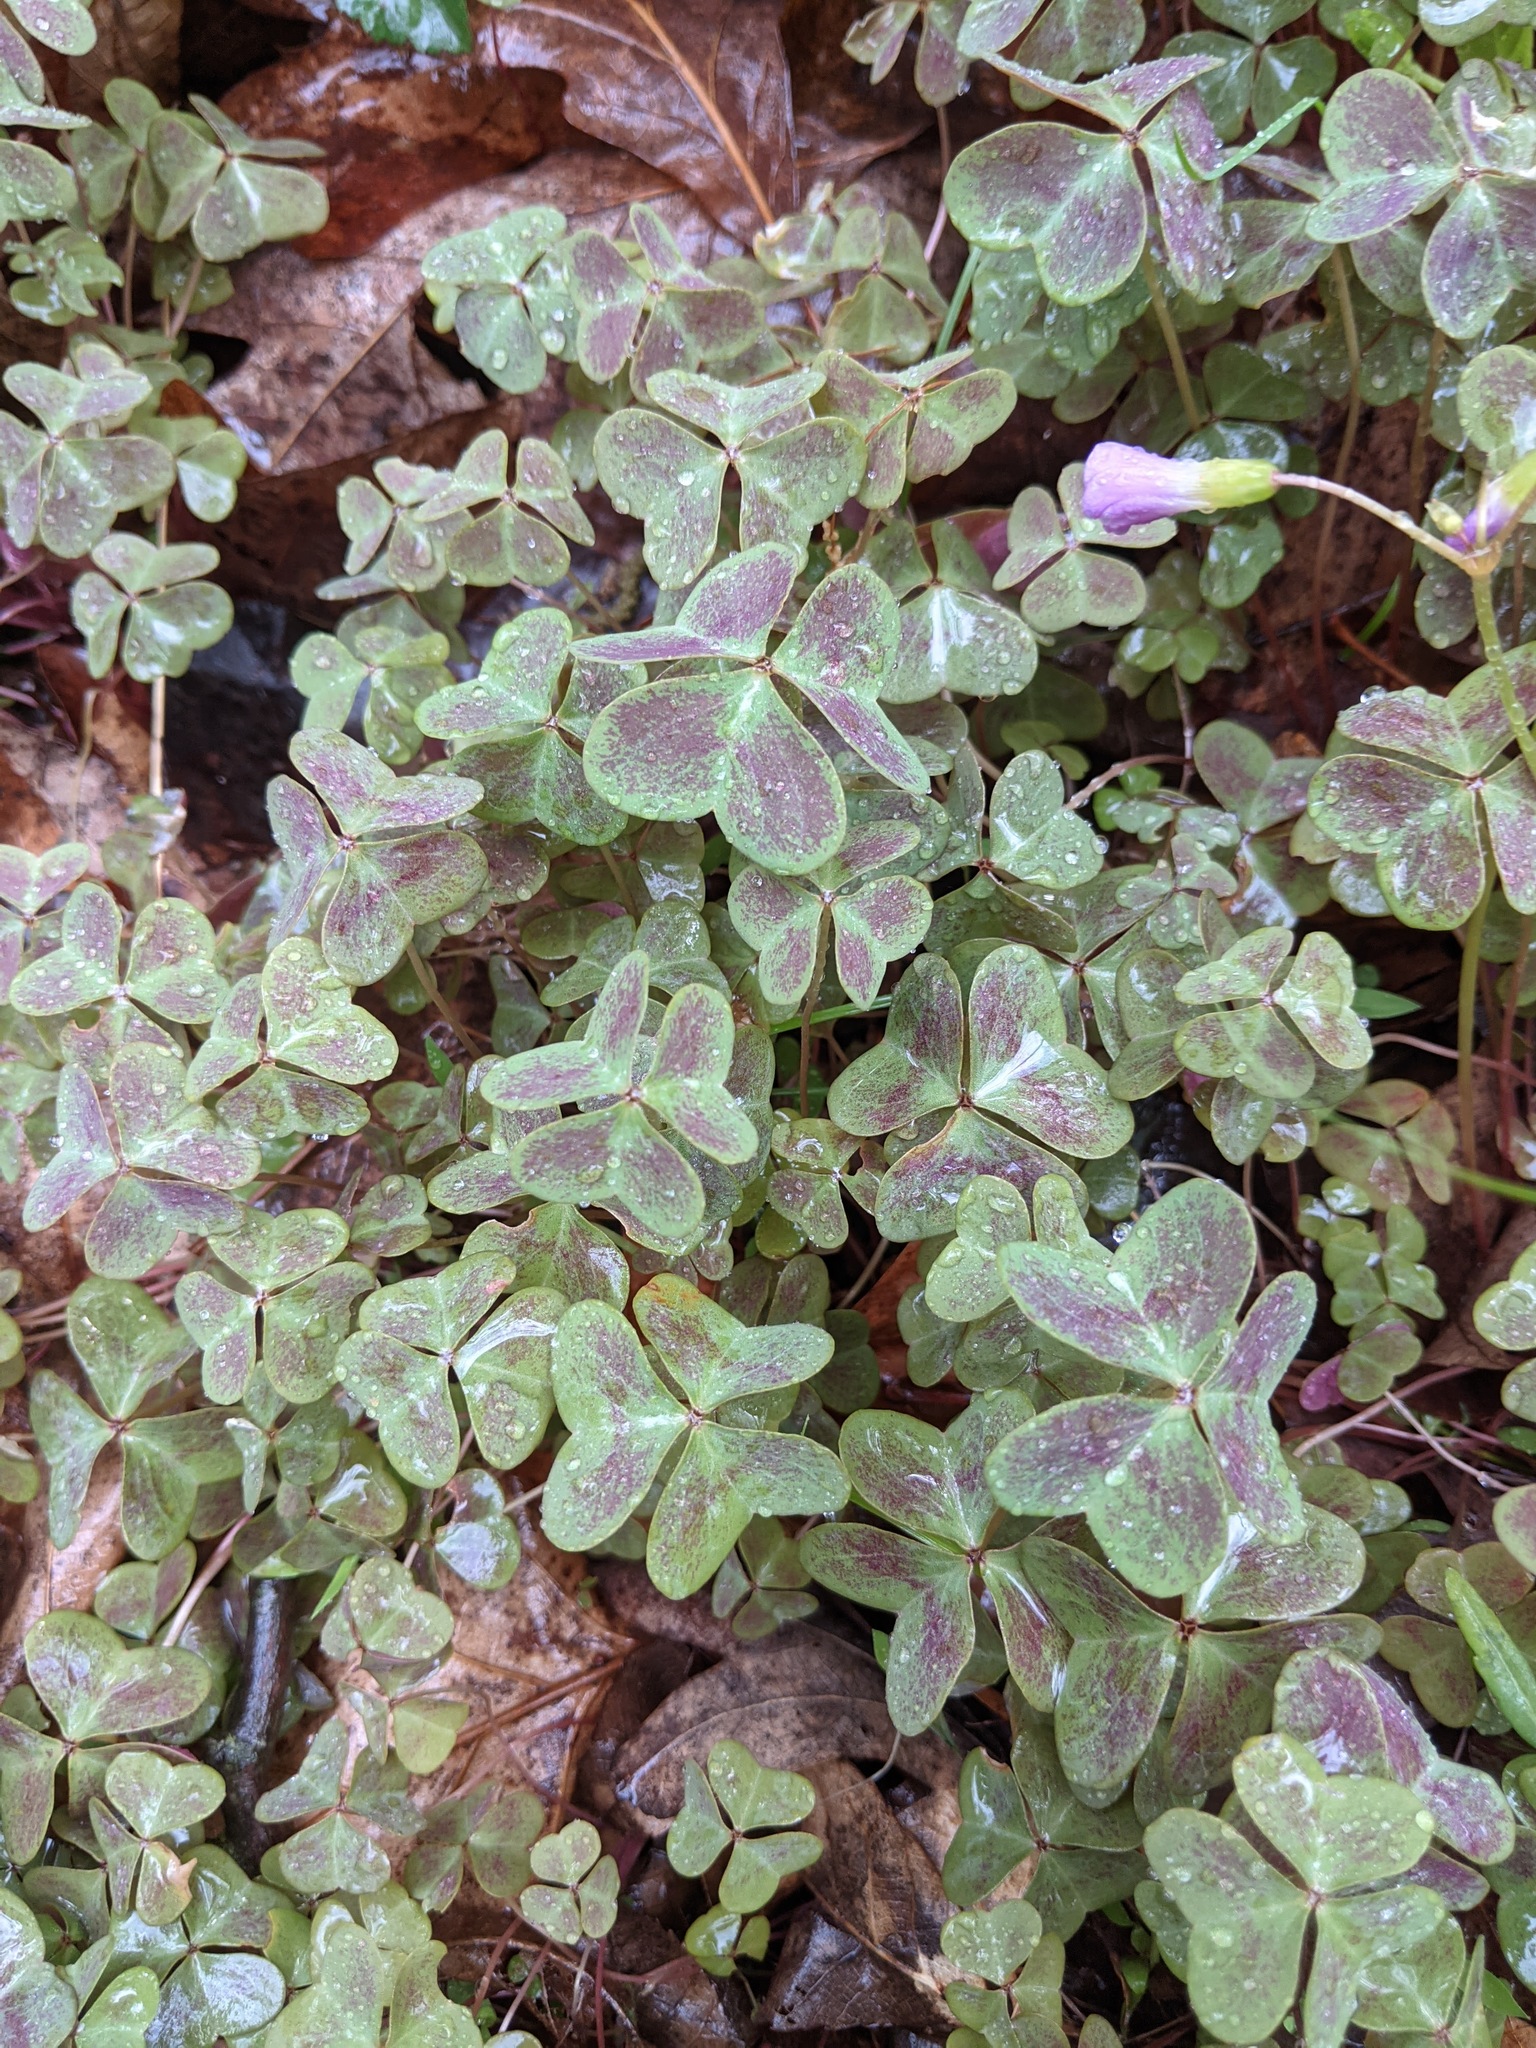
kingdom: Plantae
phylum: Tracheophyta
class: Magnoliopsida
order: Oxalidales
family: Oxalidaceae
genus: Oxalis
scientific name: Oxalis violacea
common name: Violet wood-sorrel
